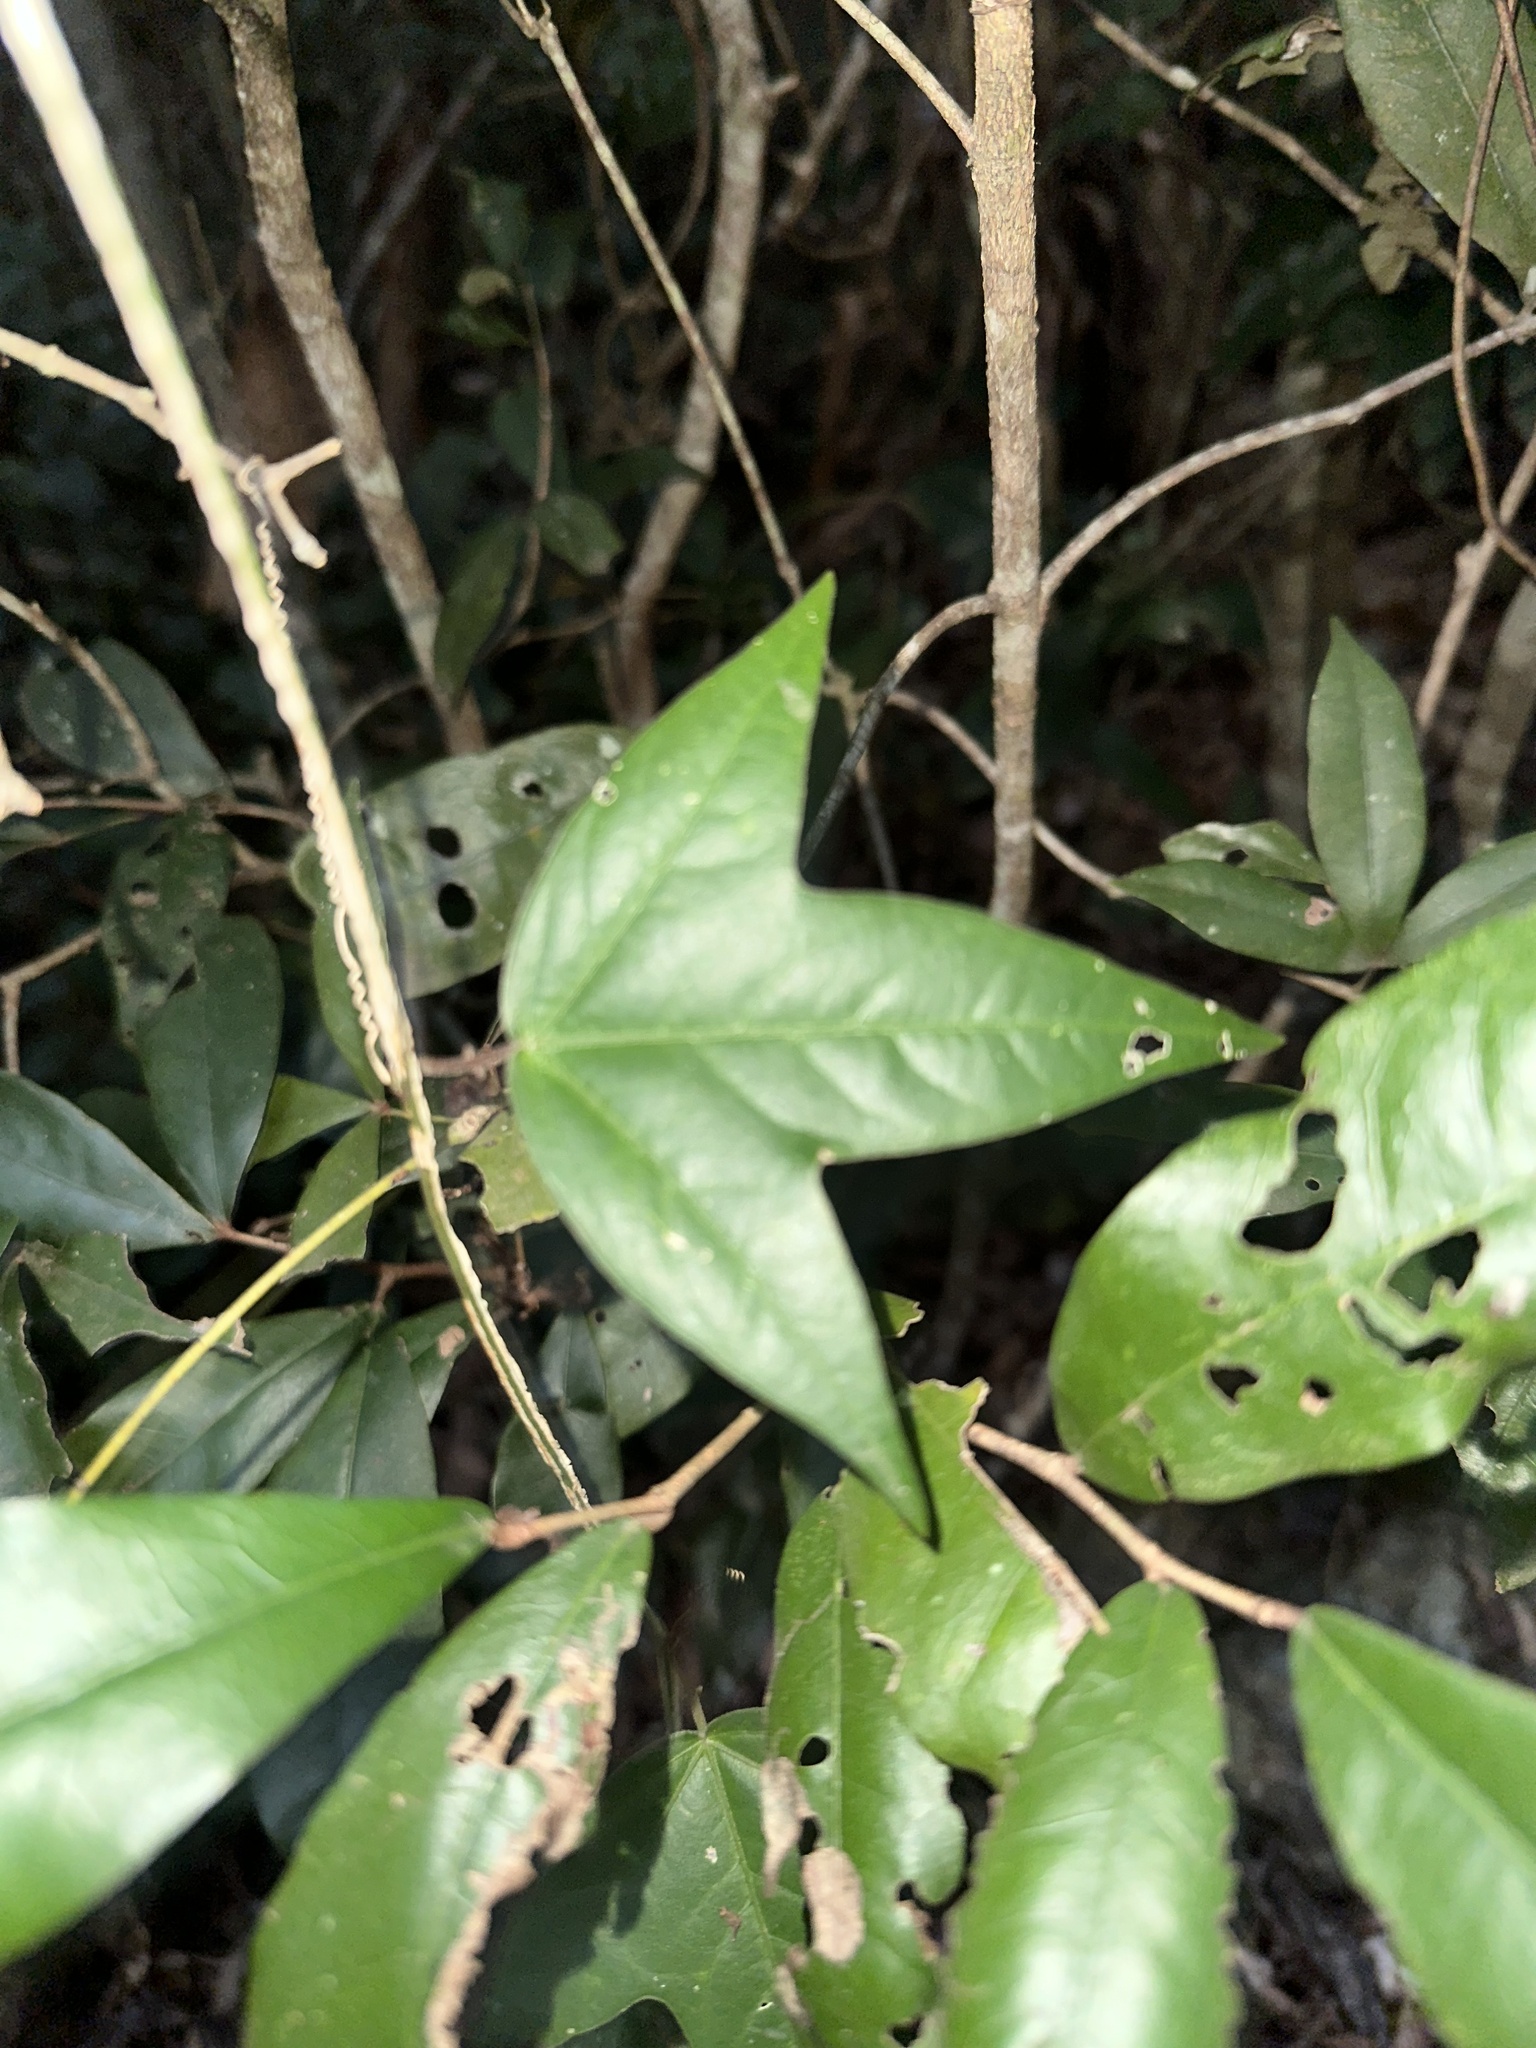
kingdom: Plantae
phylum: Tracheophyta
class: Magnoliopsida
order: Malpighiales
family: Passifloraceae
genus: Passiflora
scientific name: Passiflora suberosa
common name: Wild passionfruit
